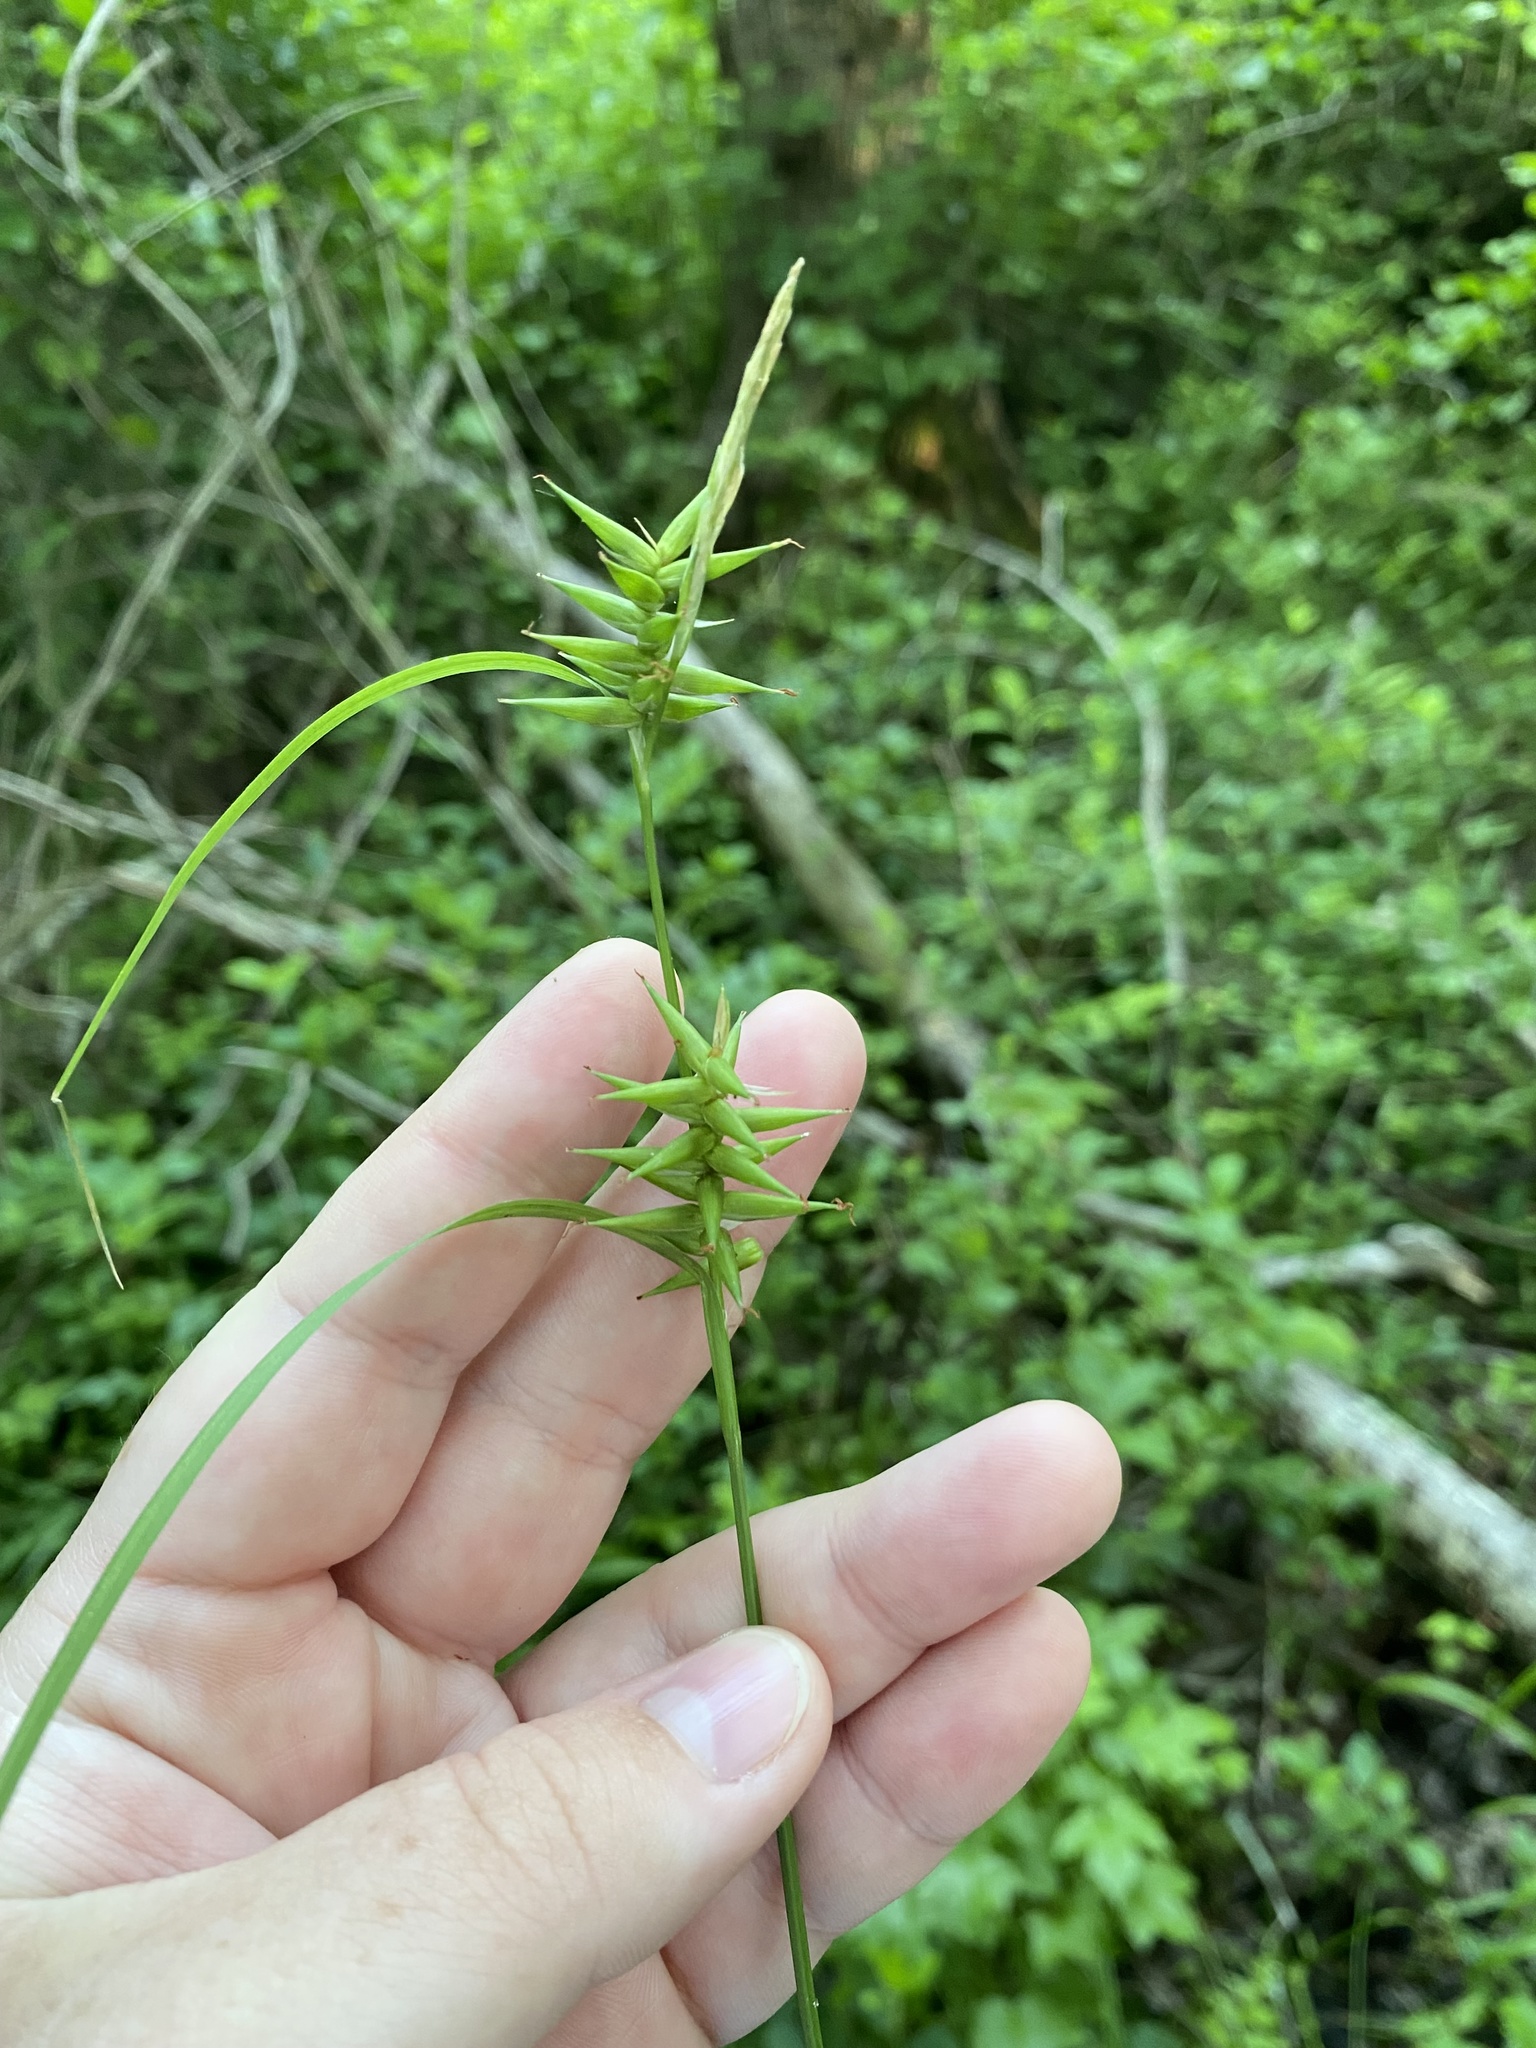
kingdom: Plantae
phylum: Tracheophyta
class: Liliopsida
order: Poales
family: Cyperaceae
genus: Carex
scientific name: Carex lonchocarpa
